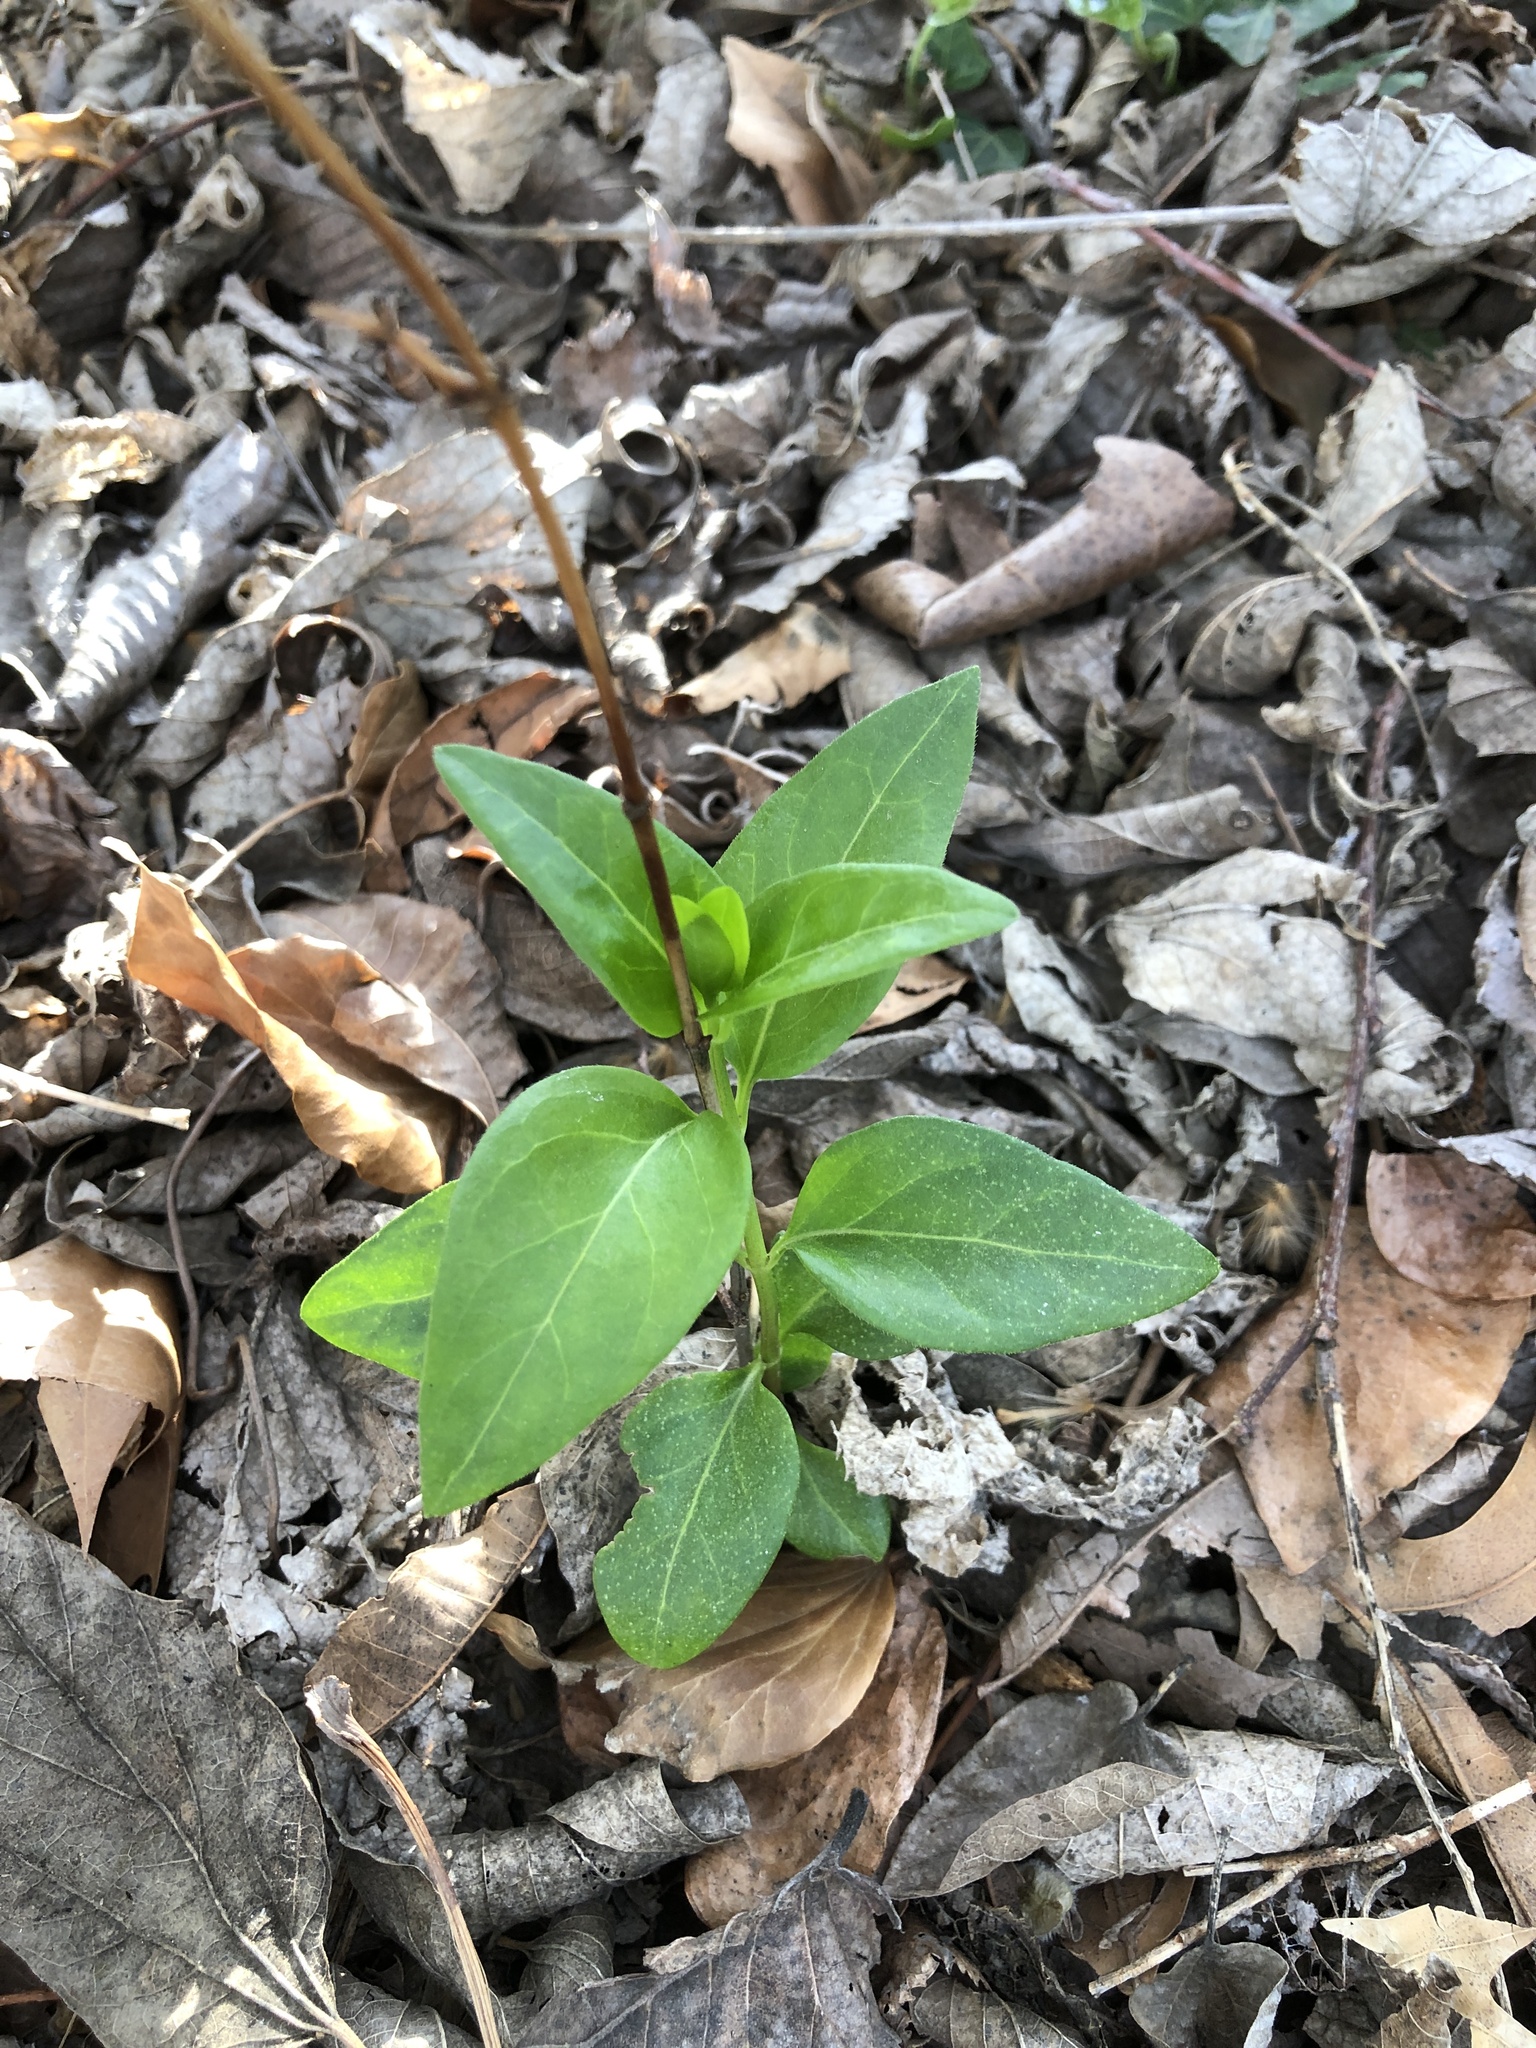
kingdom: Plantae
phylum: Tracheophyta
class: Magnoliopsida
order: Gentianales
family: Apocynaceae
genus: Vinca
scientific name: Vinca major
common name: Greater periwinkle
